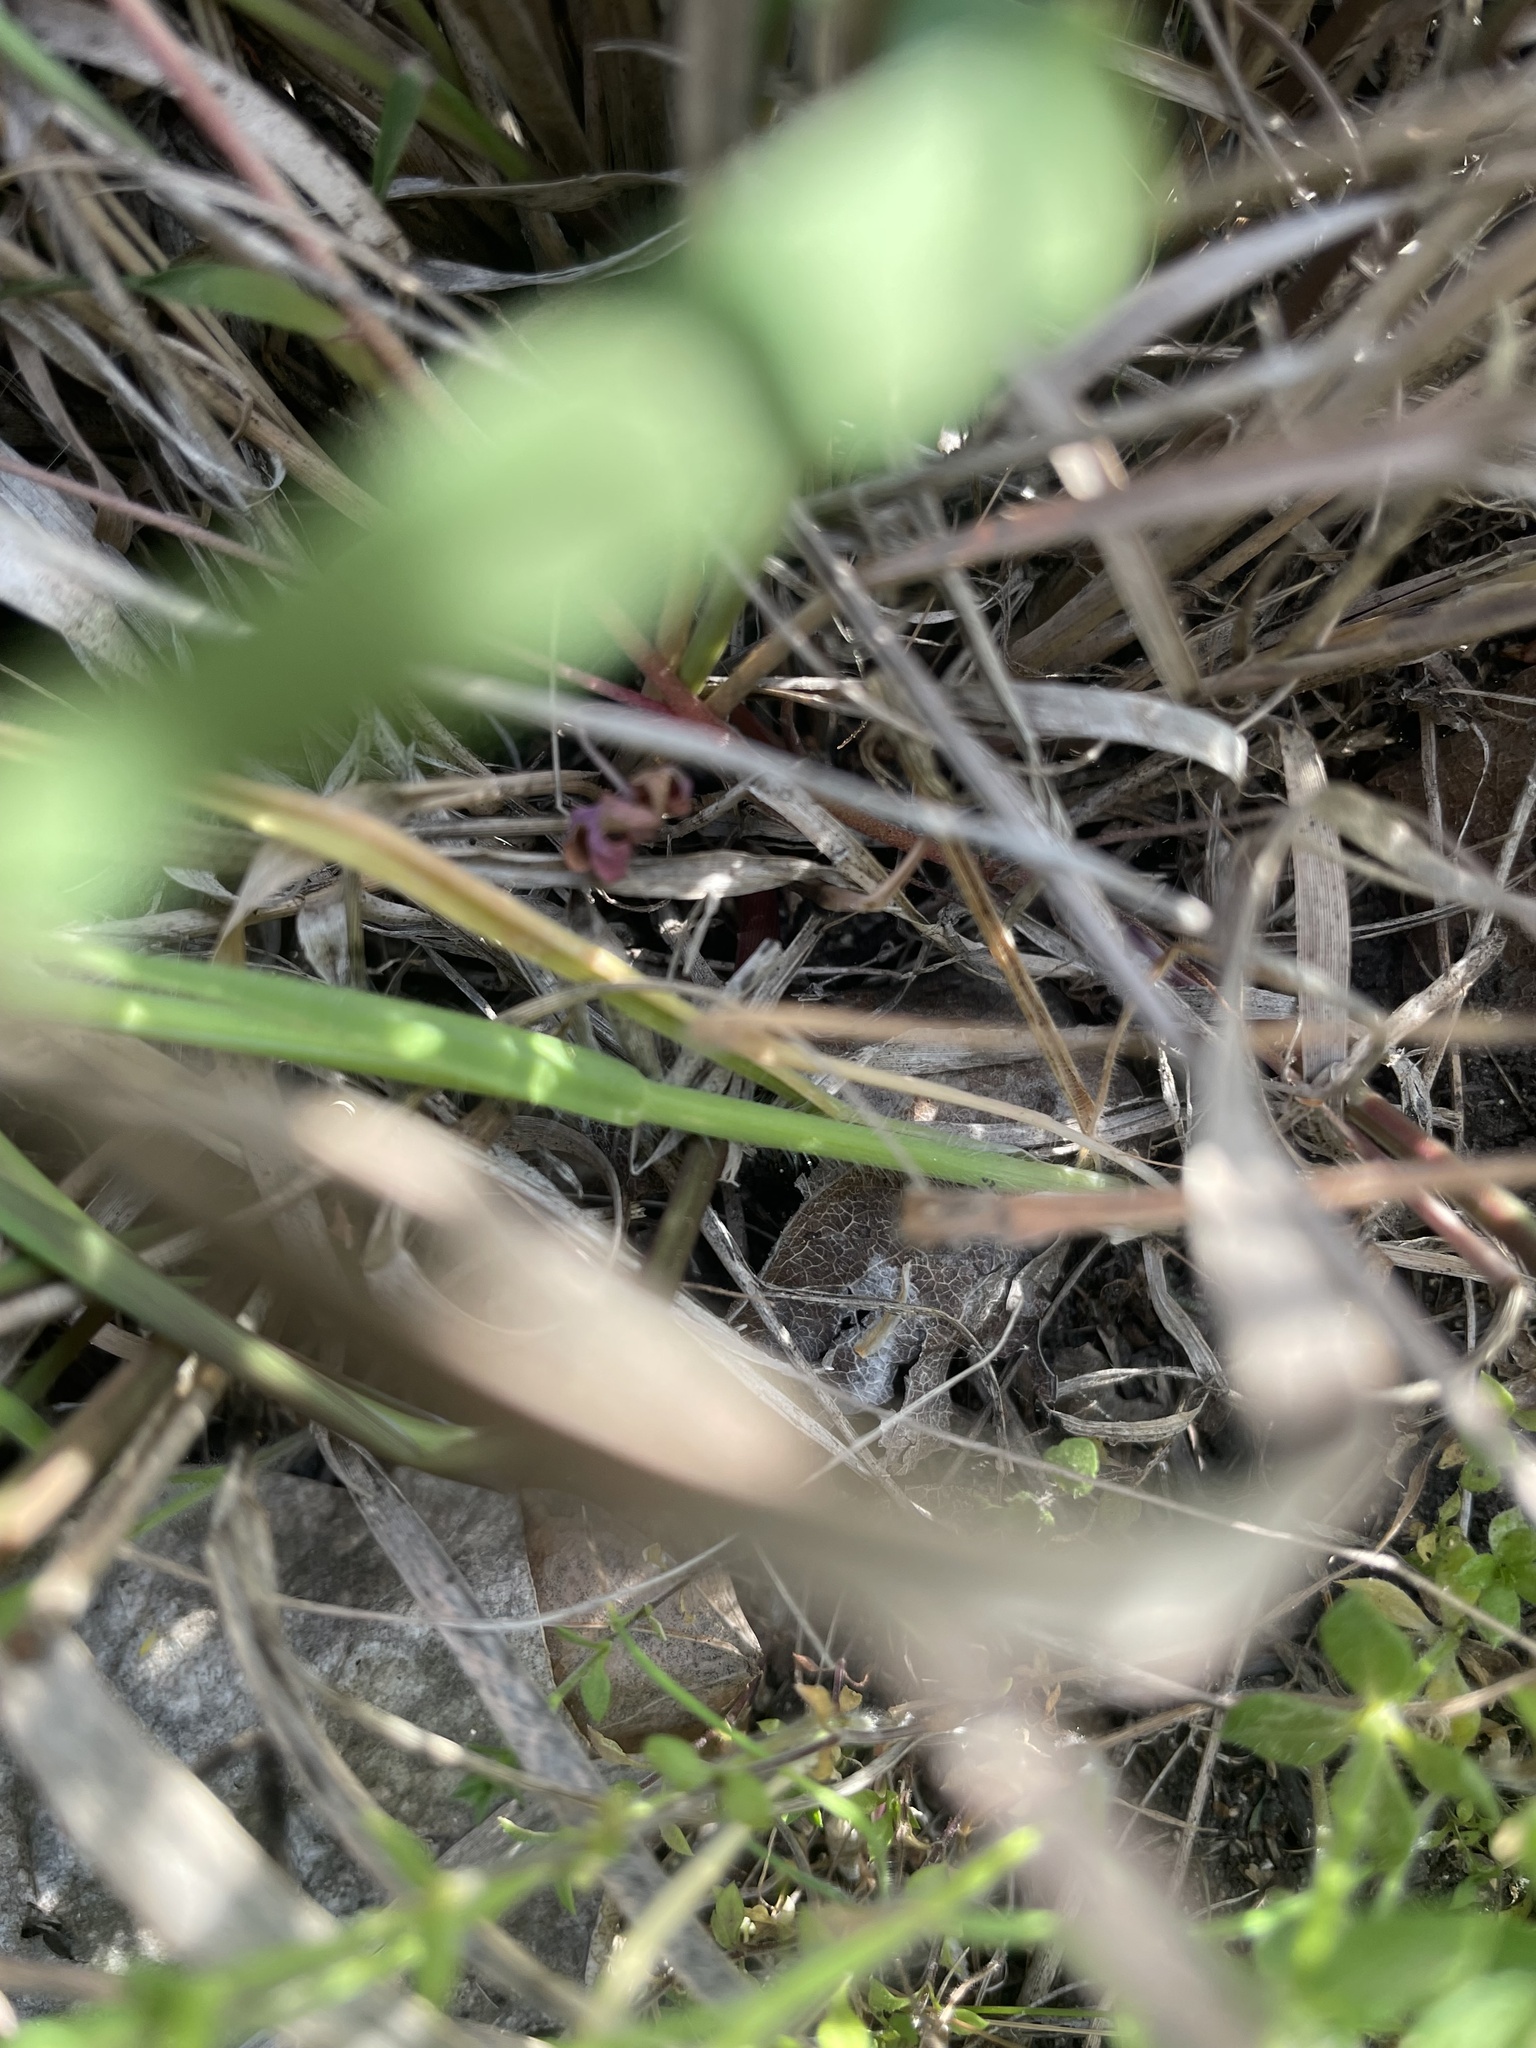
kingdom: Plantae
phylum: Tracheophyta
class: Liliopsida
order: Poales
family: Poaceae
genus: Bouteloua
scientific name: Bouteloua curtipendula
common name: Side-oats grama
